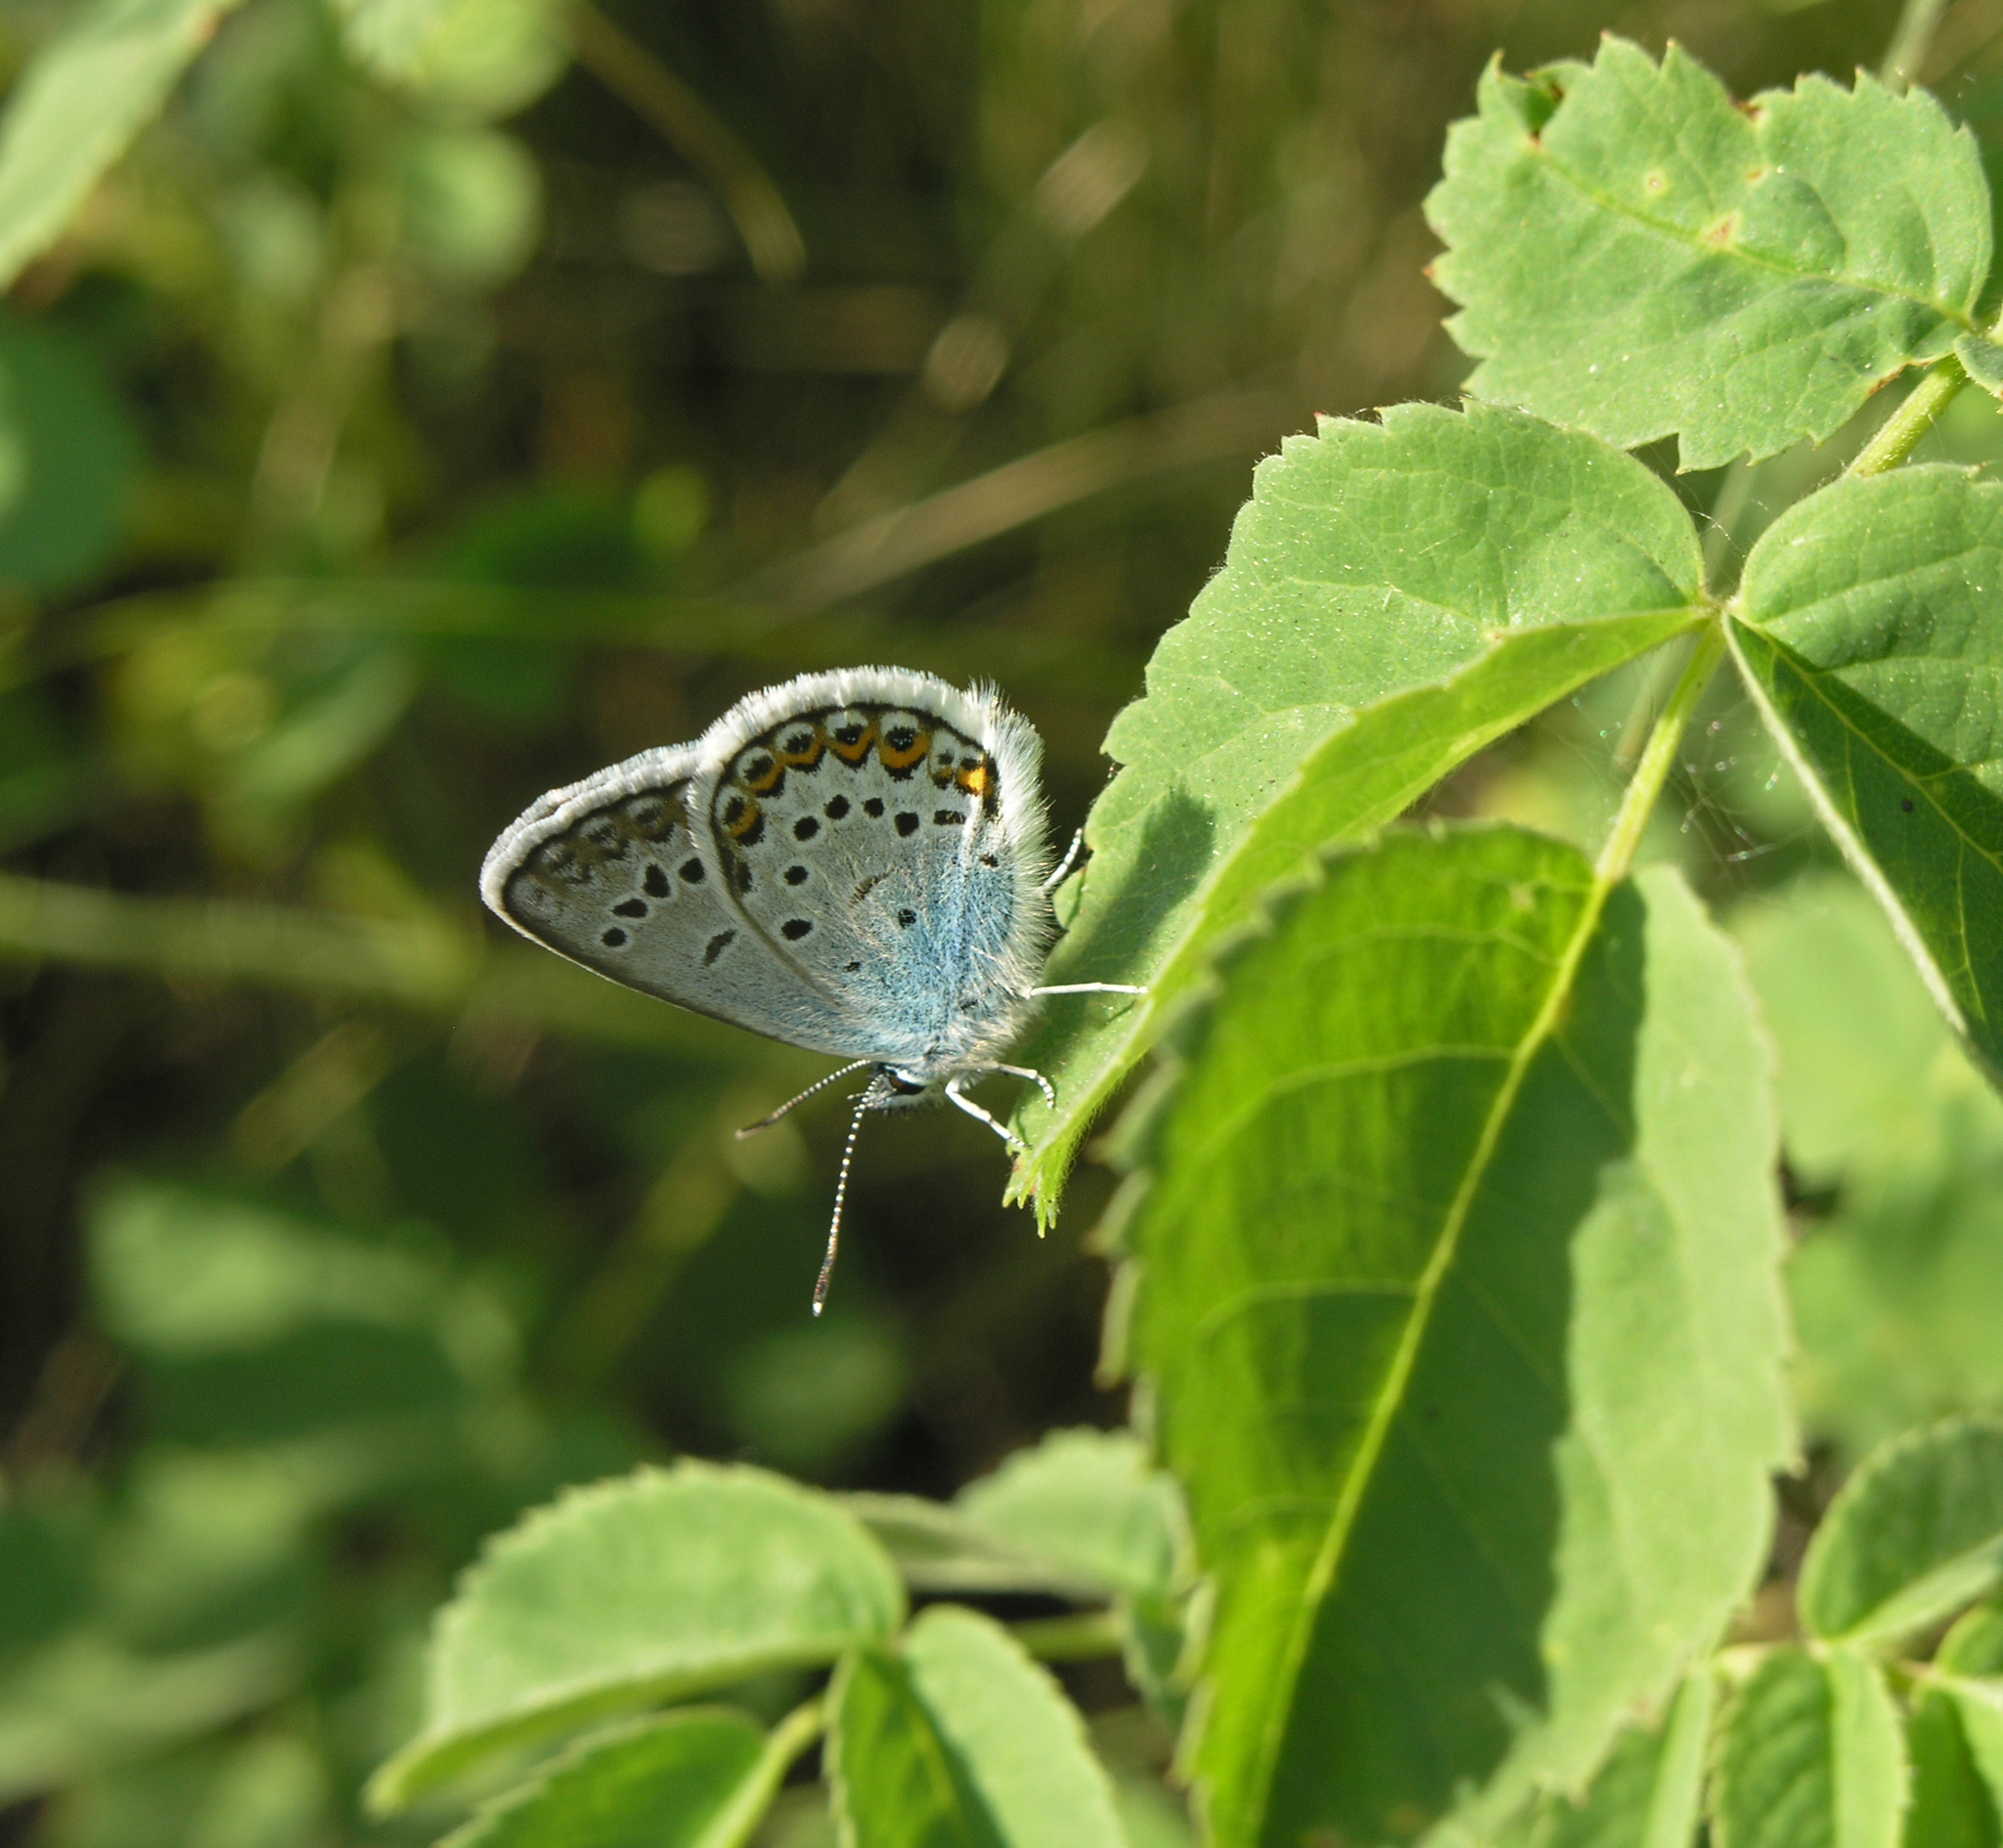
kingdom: Animalia
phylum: Arthropoda
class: Insecta
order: Lepidoptera
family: Lycaenidae
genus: Plebejus
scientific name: Plebejus argus
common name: Silver-studded blue
